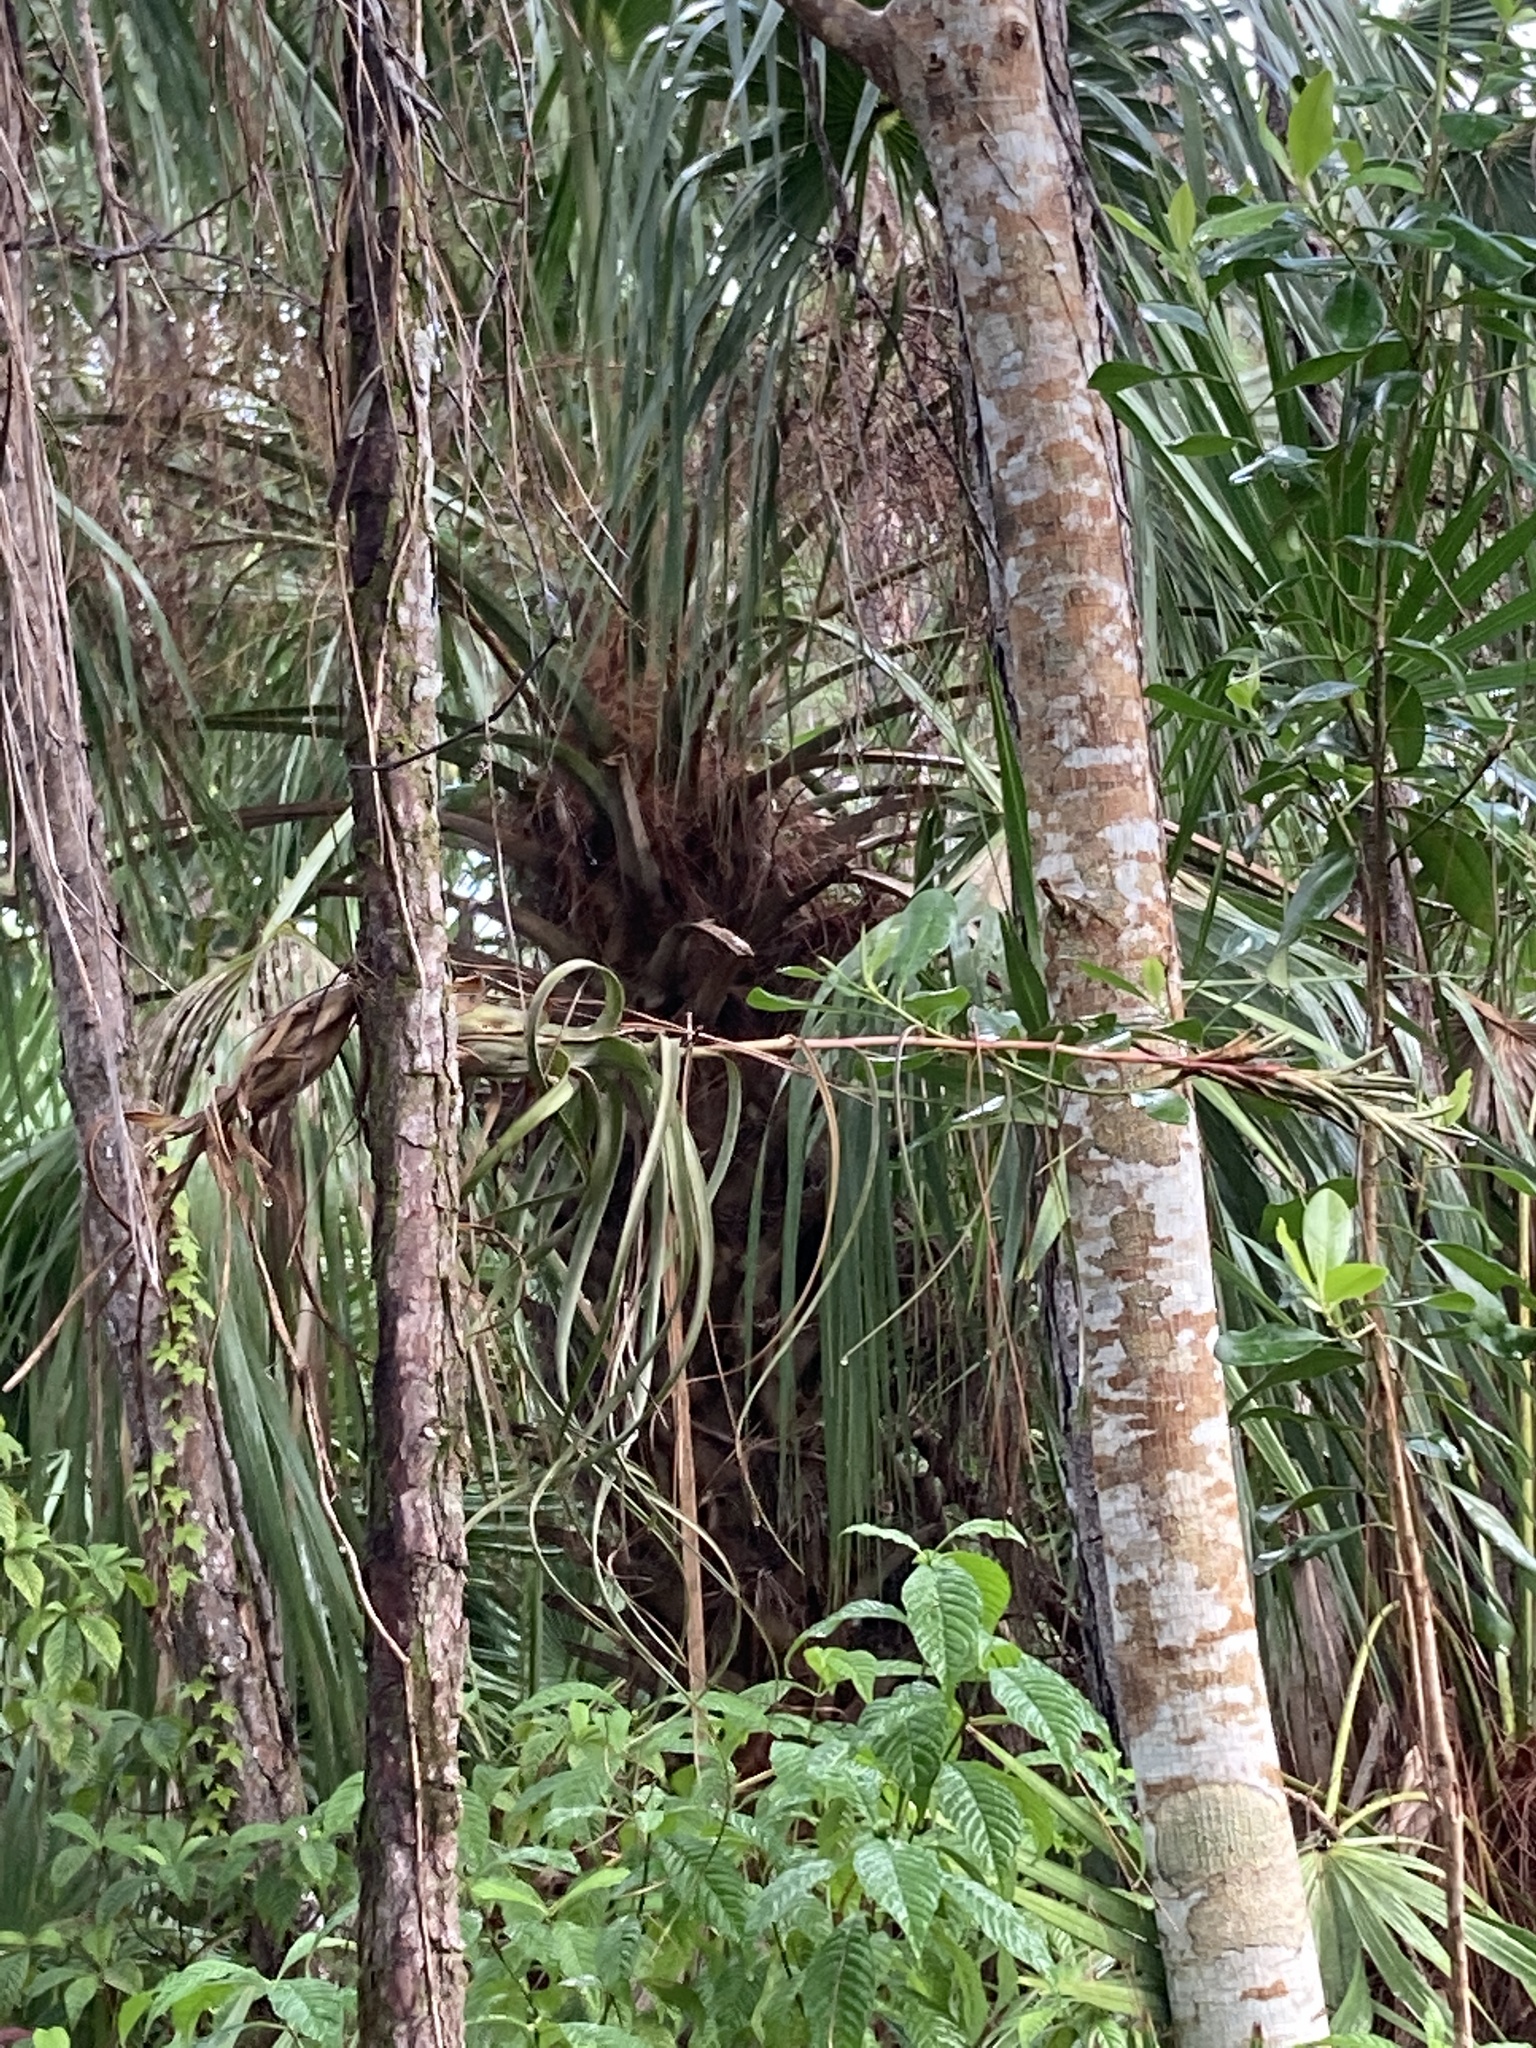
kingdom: Plantae
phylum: Tracheophyta
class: Liliopsida
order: Poales
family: Bromeliaceae
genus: Tillandsia
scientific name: Tillandsia balbisiana
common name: Northern needleleaf
